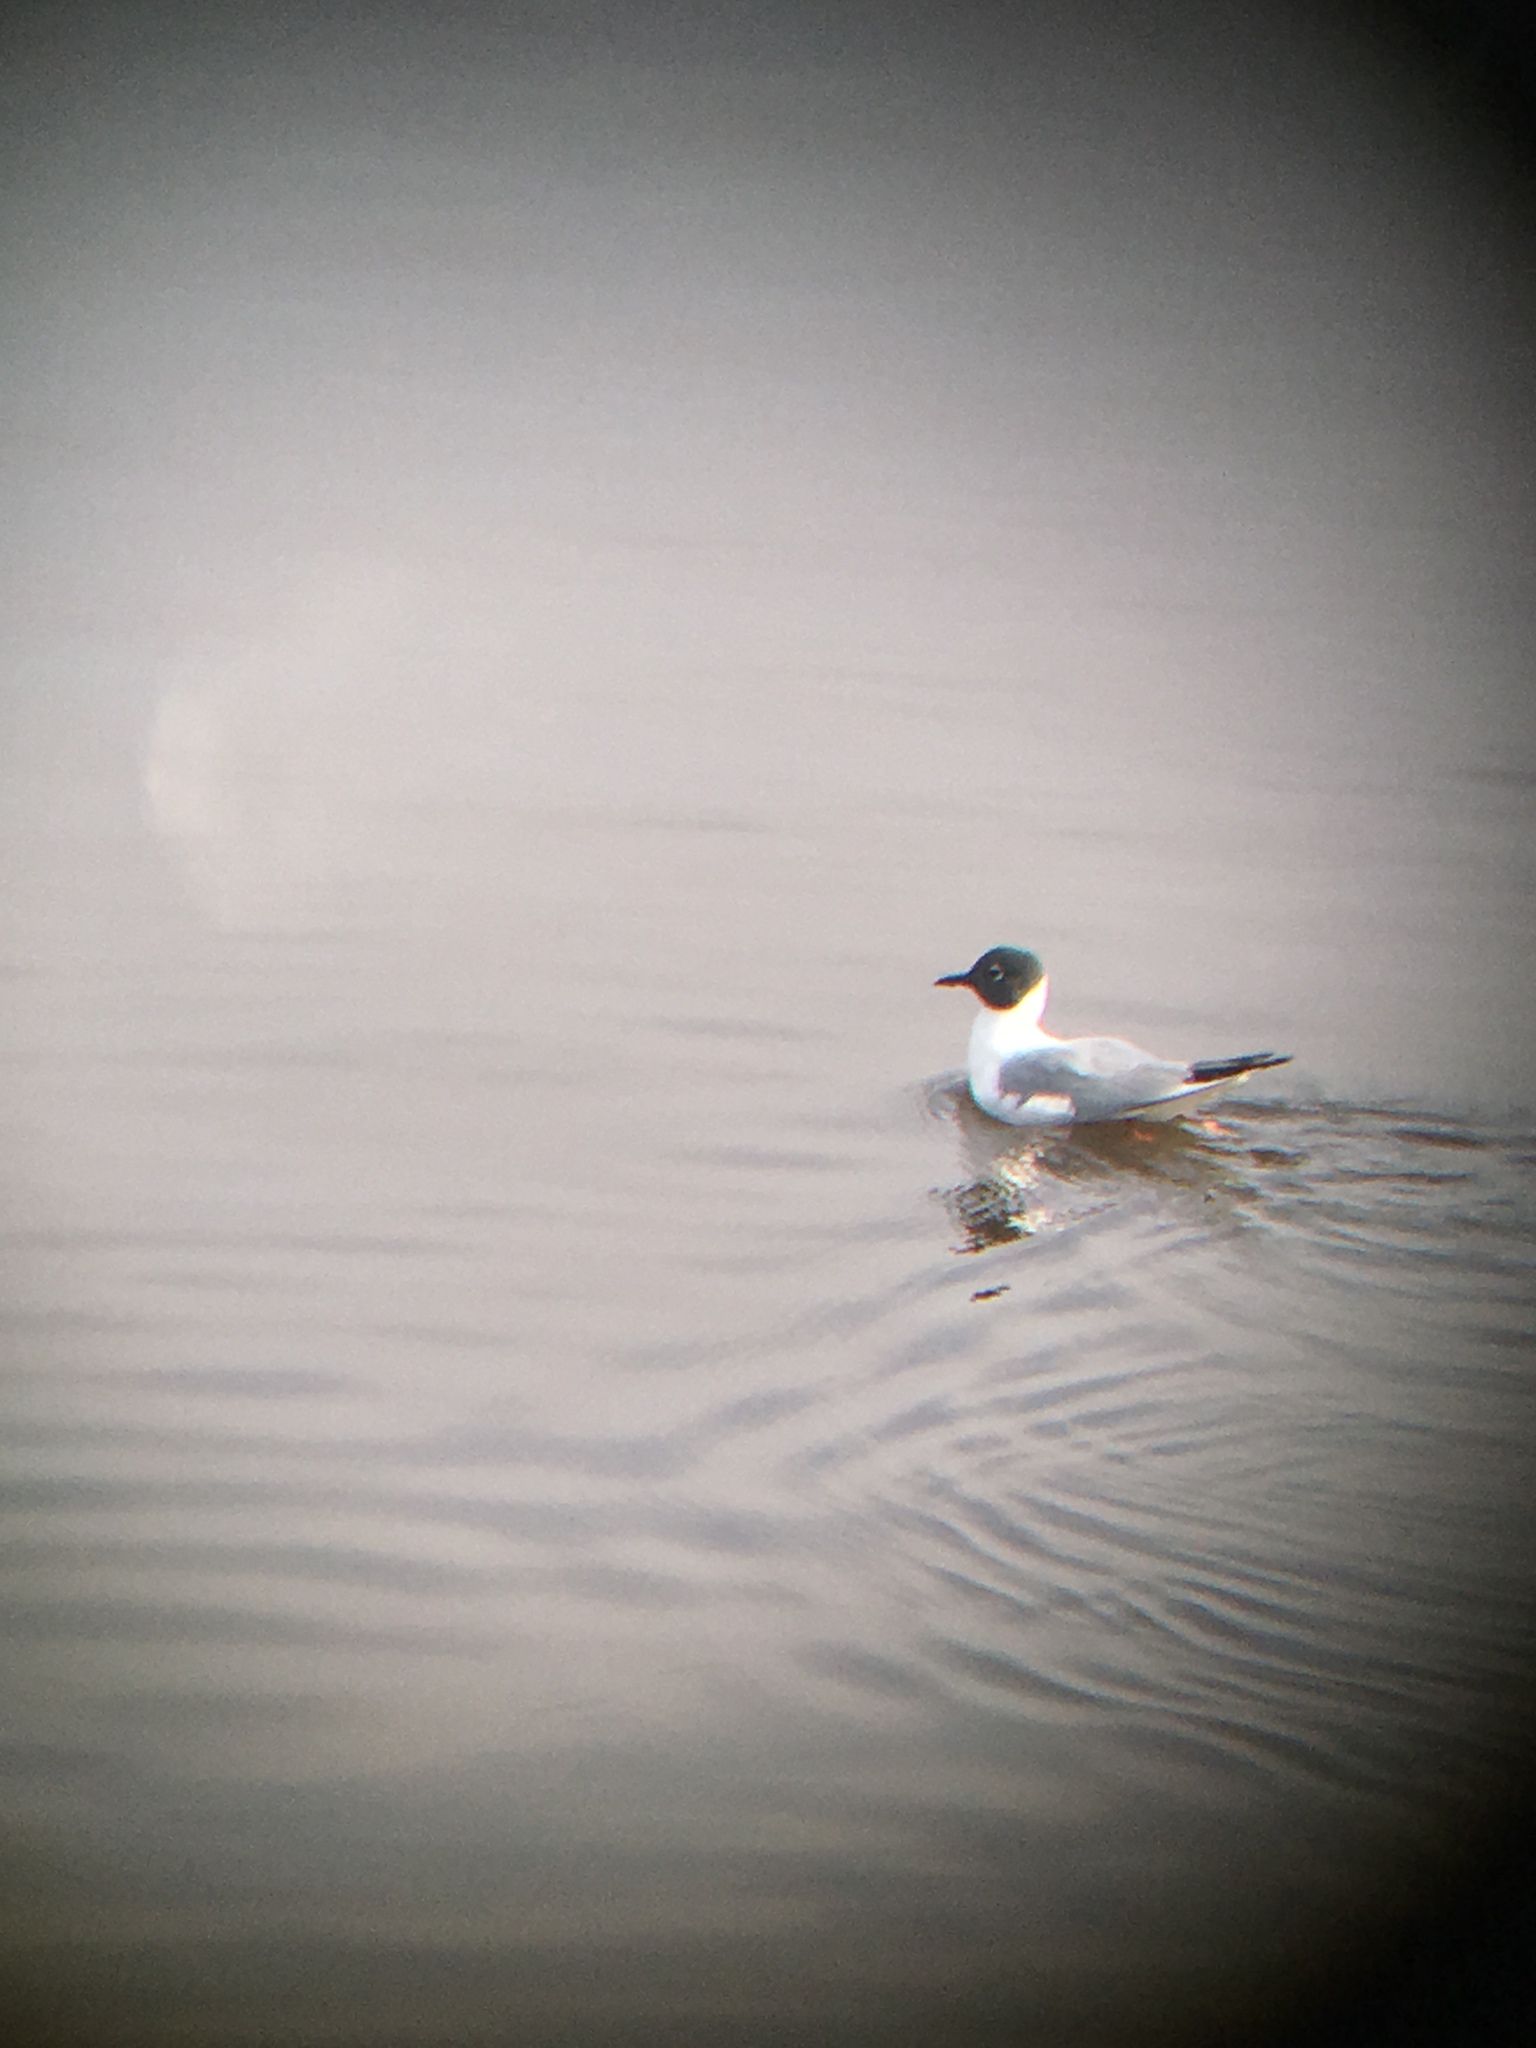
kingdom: Animalia
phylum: Chordata
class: Aves
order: Charadriiformes
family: Laridae
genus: Chroicocephalus
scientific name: Chroicocephalus philadelphia
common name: Bonaparte's gull
